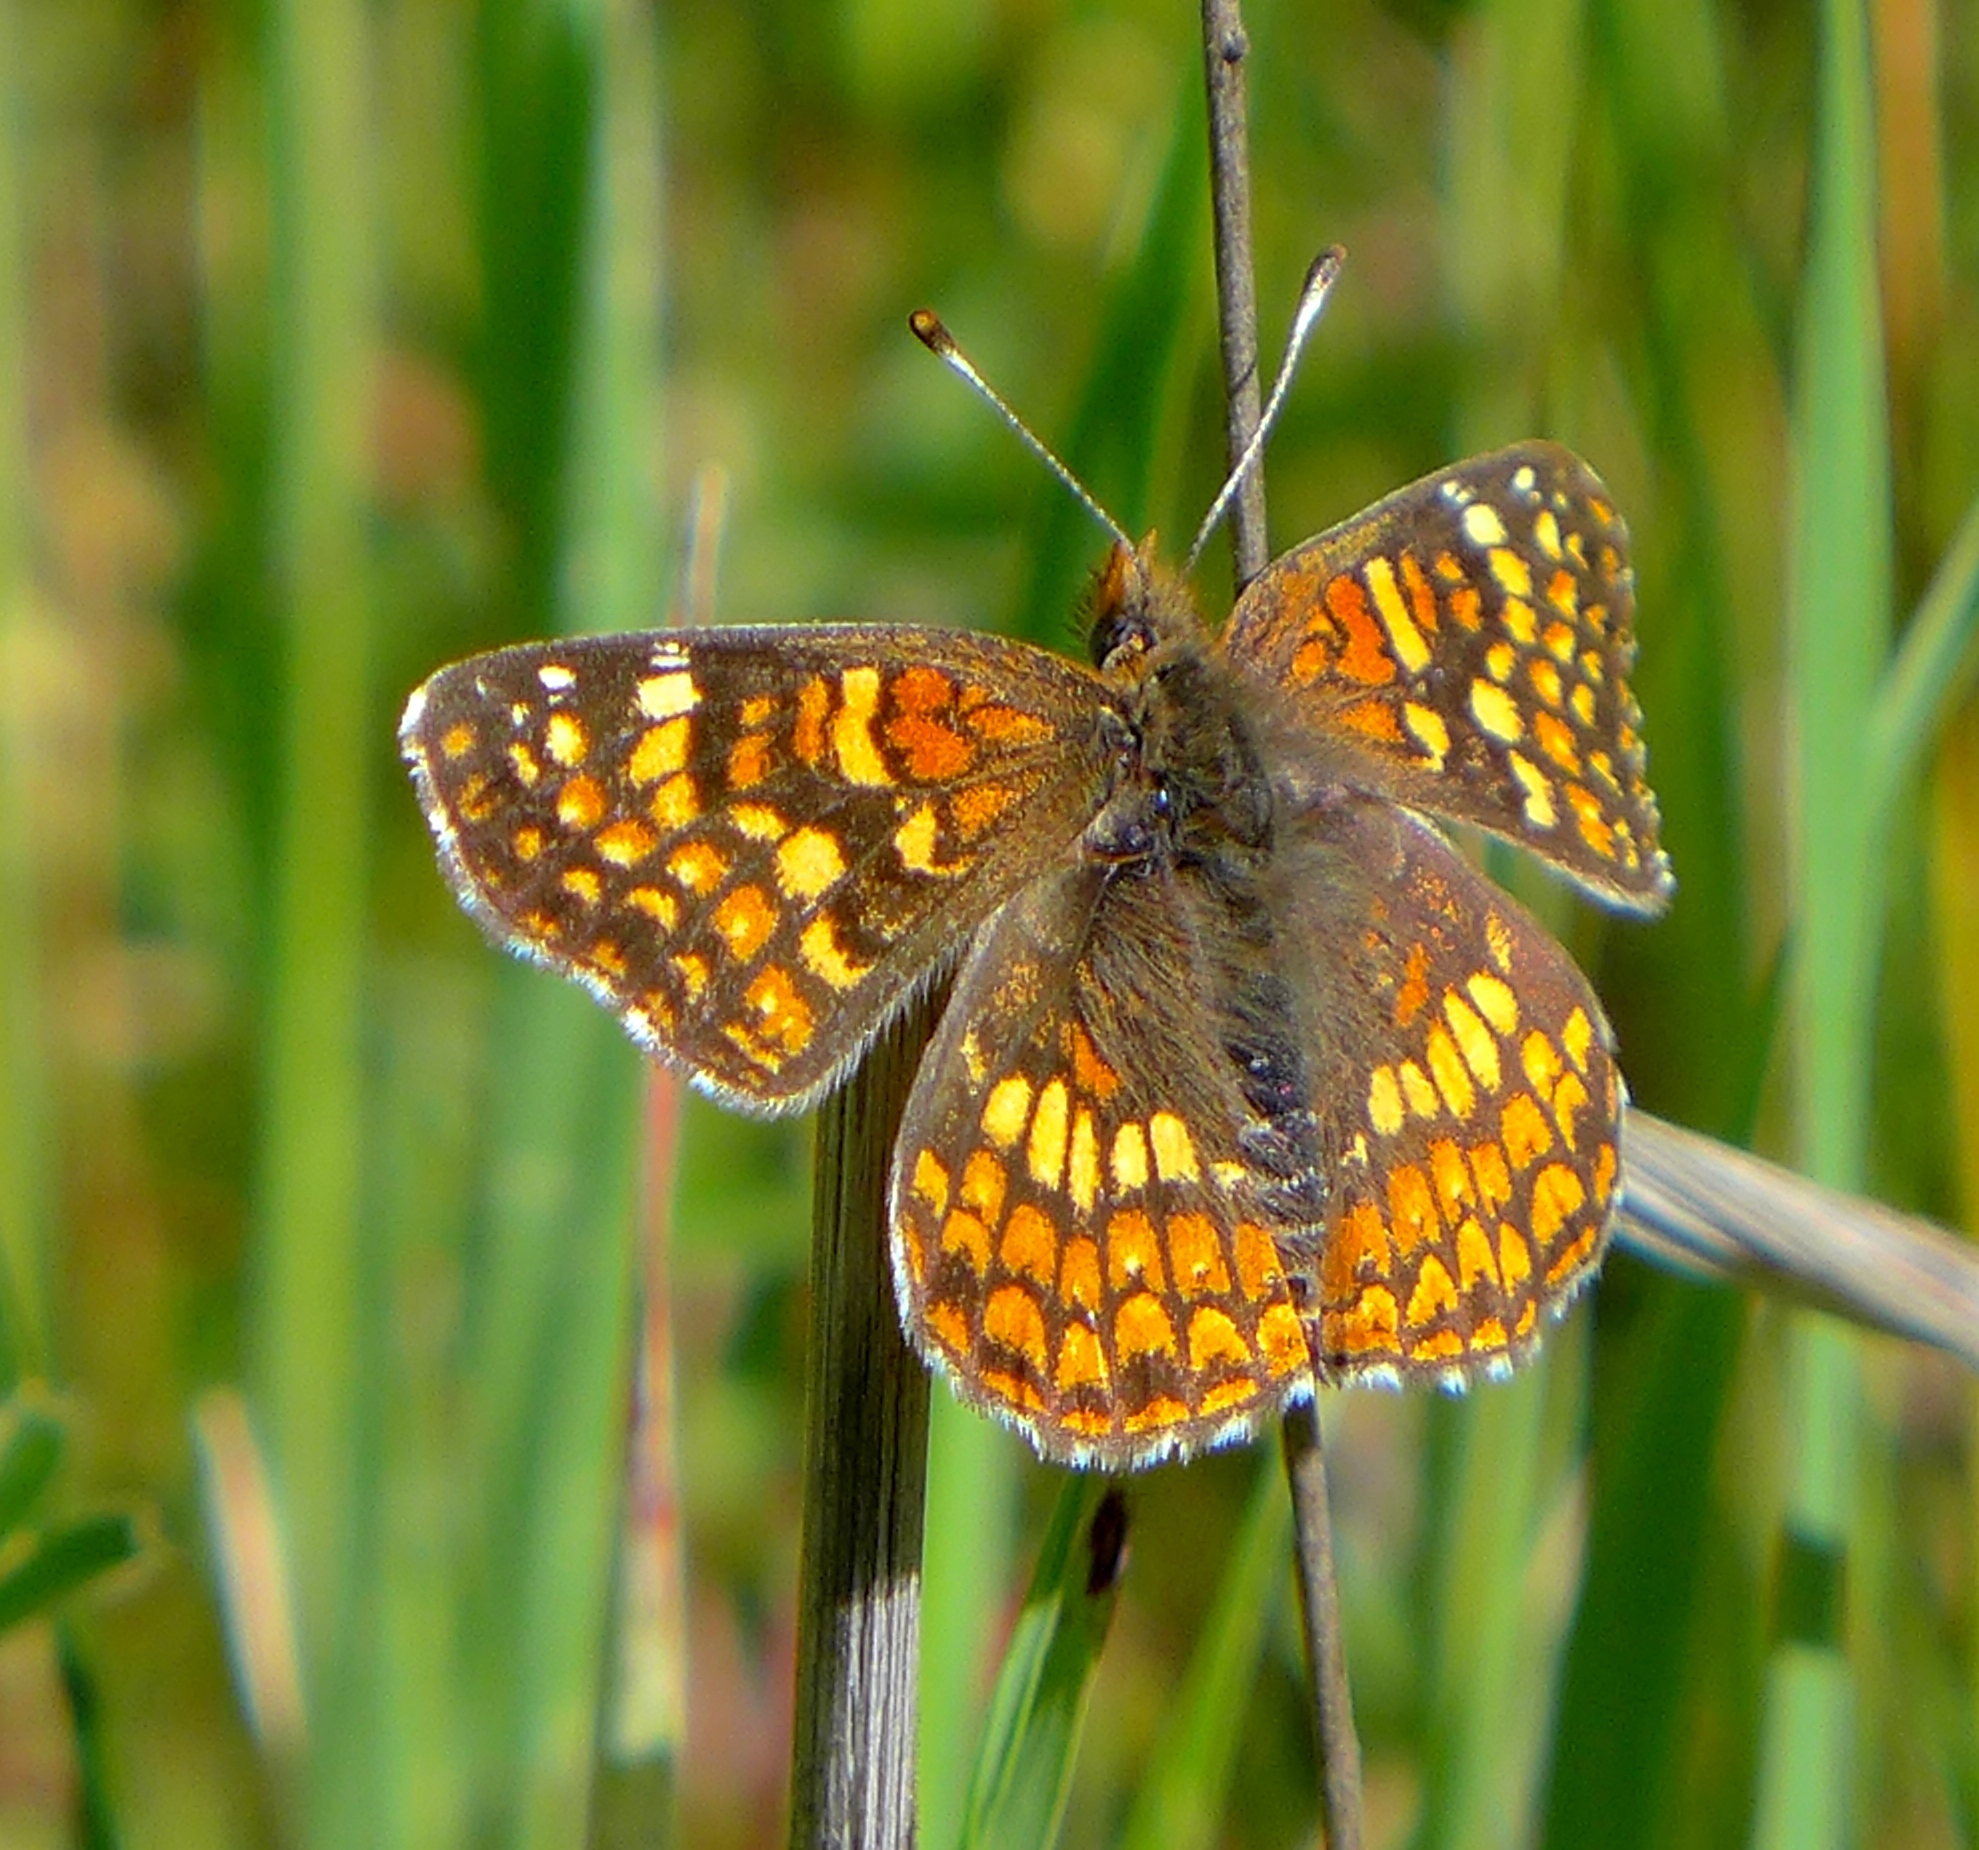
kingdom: Animalia
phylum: Arthropoda
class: Insecta
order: Lepidoptera
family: Nymphalidae
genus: Chlosyne
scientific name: Chlosyne gabbii
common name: Gabb's checkerspot
